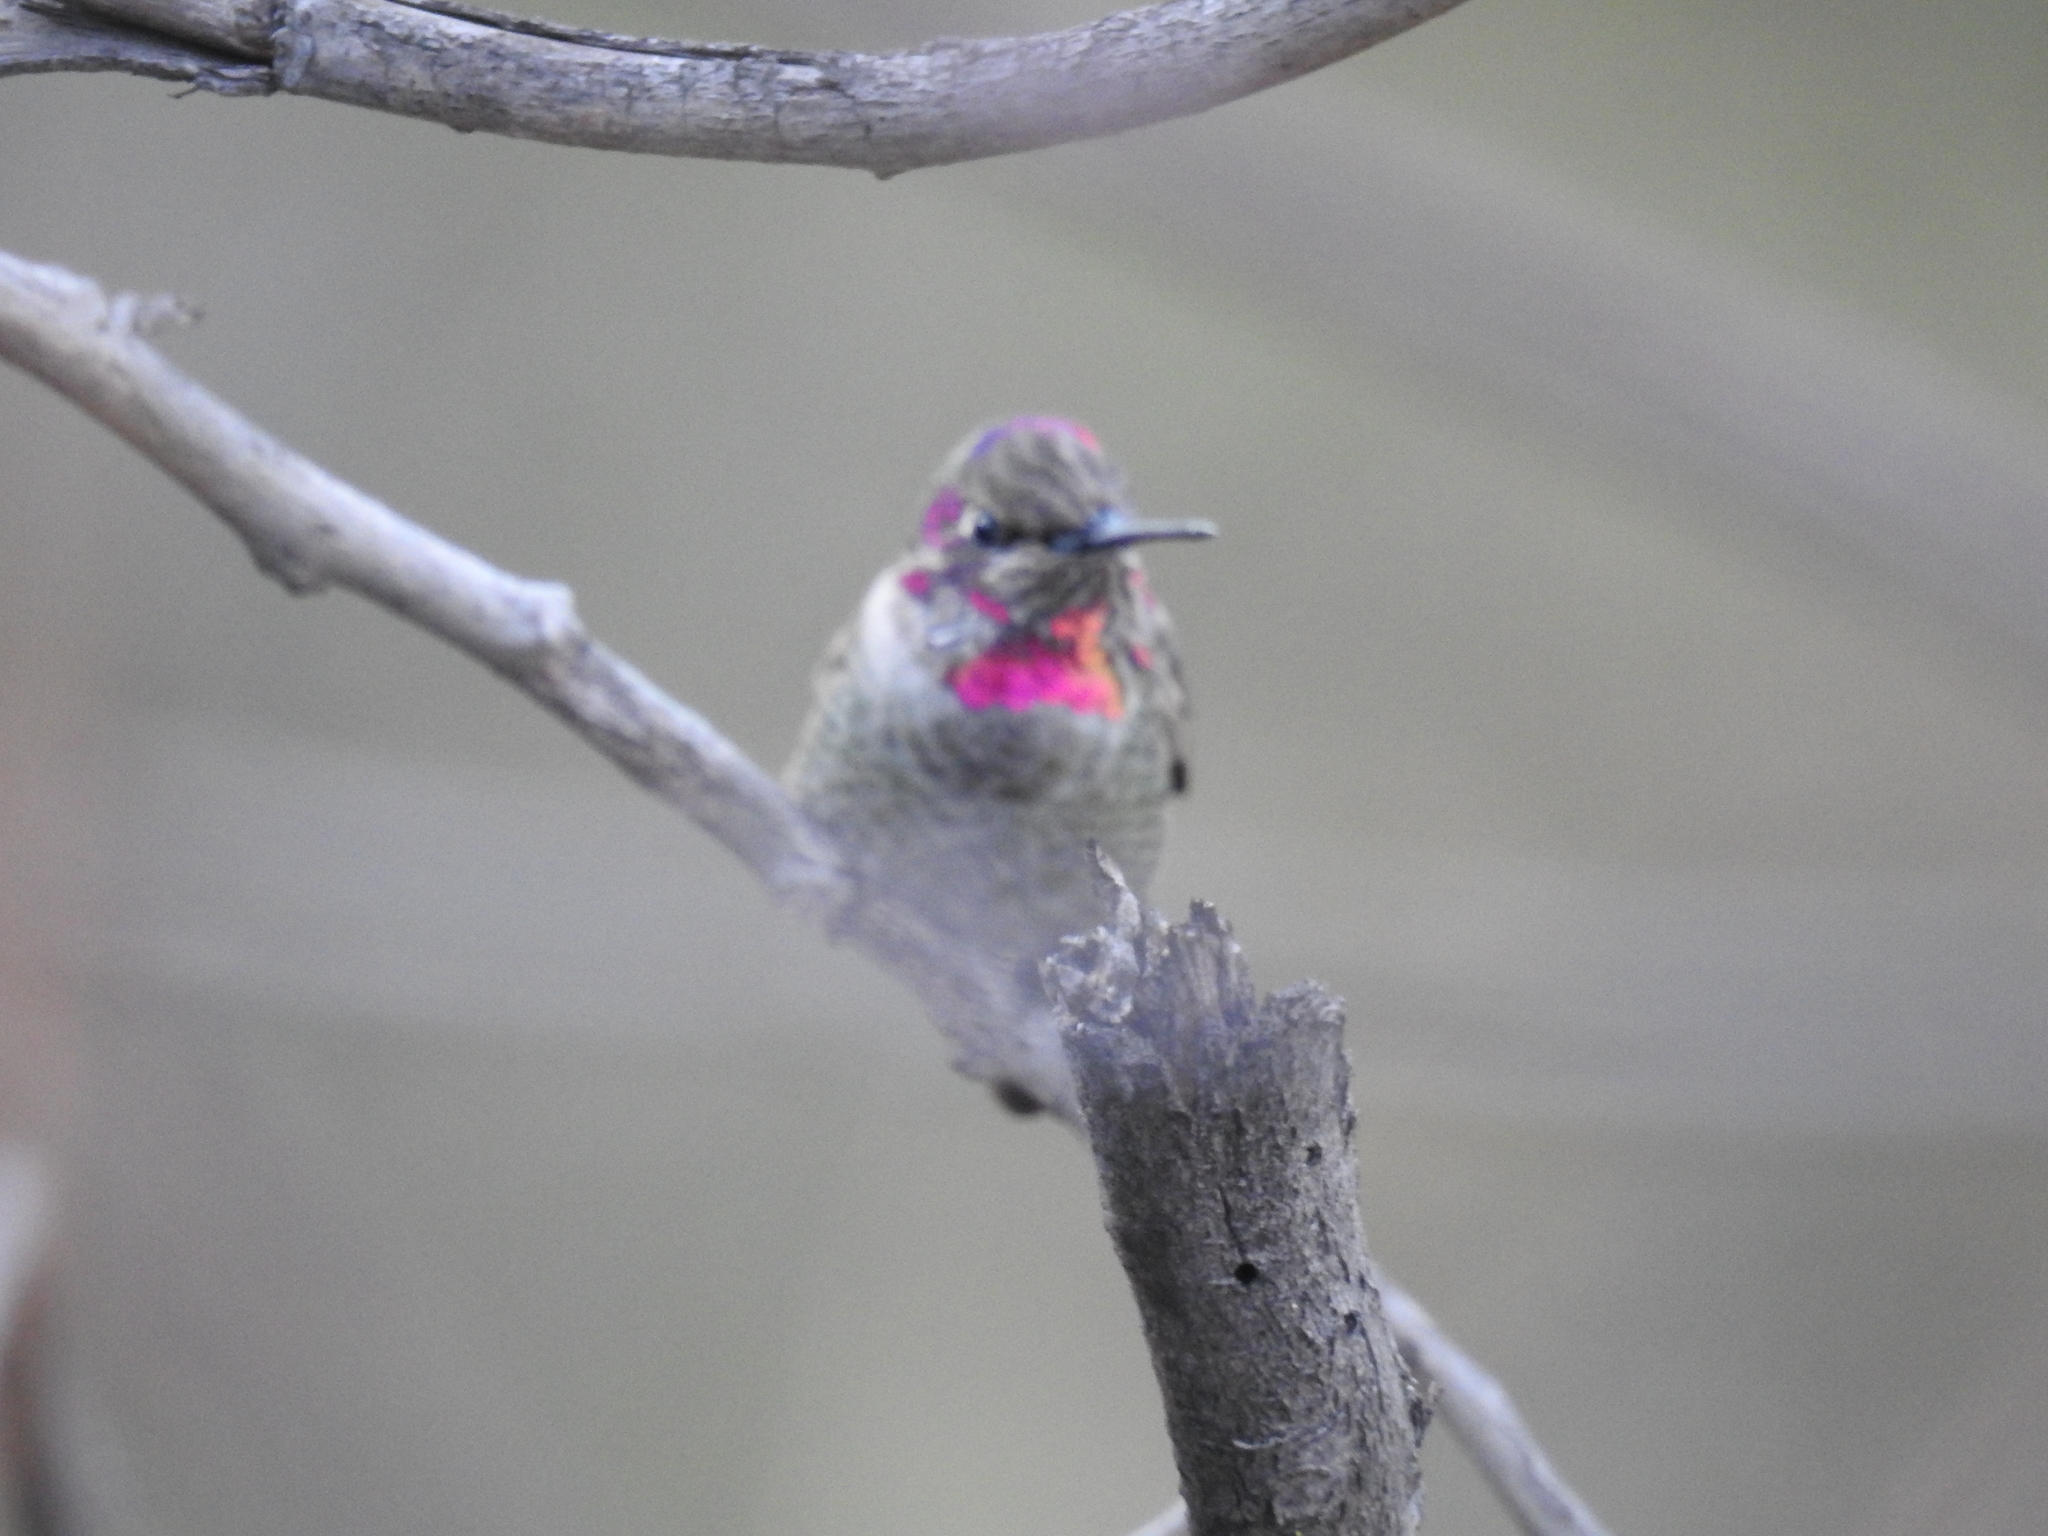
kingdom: Animalia
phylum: Chordata
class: Aves
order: Apodiformes
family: Trochilidae
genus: Calypte
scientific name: Calypte anna
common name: Anna's hummingbird
